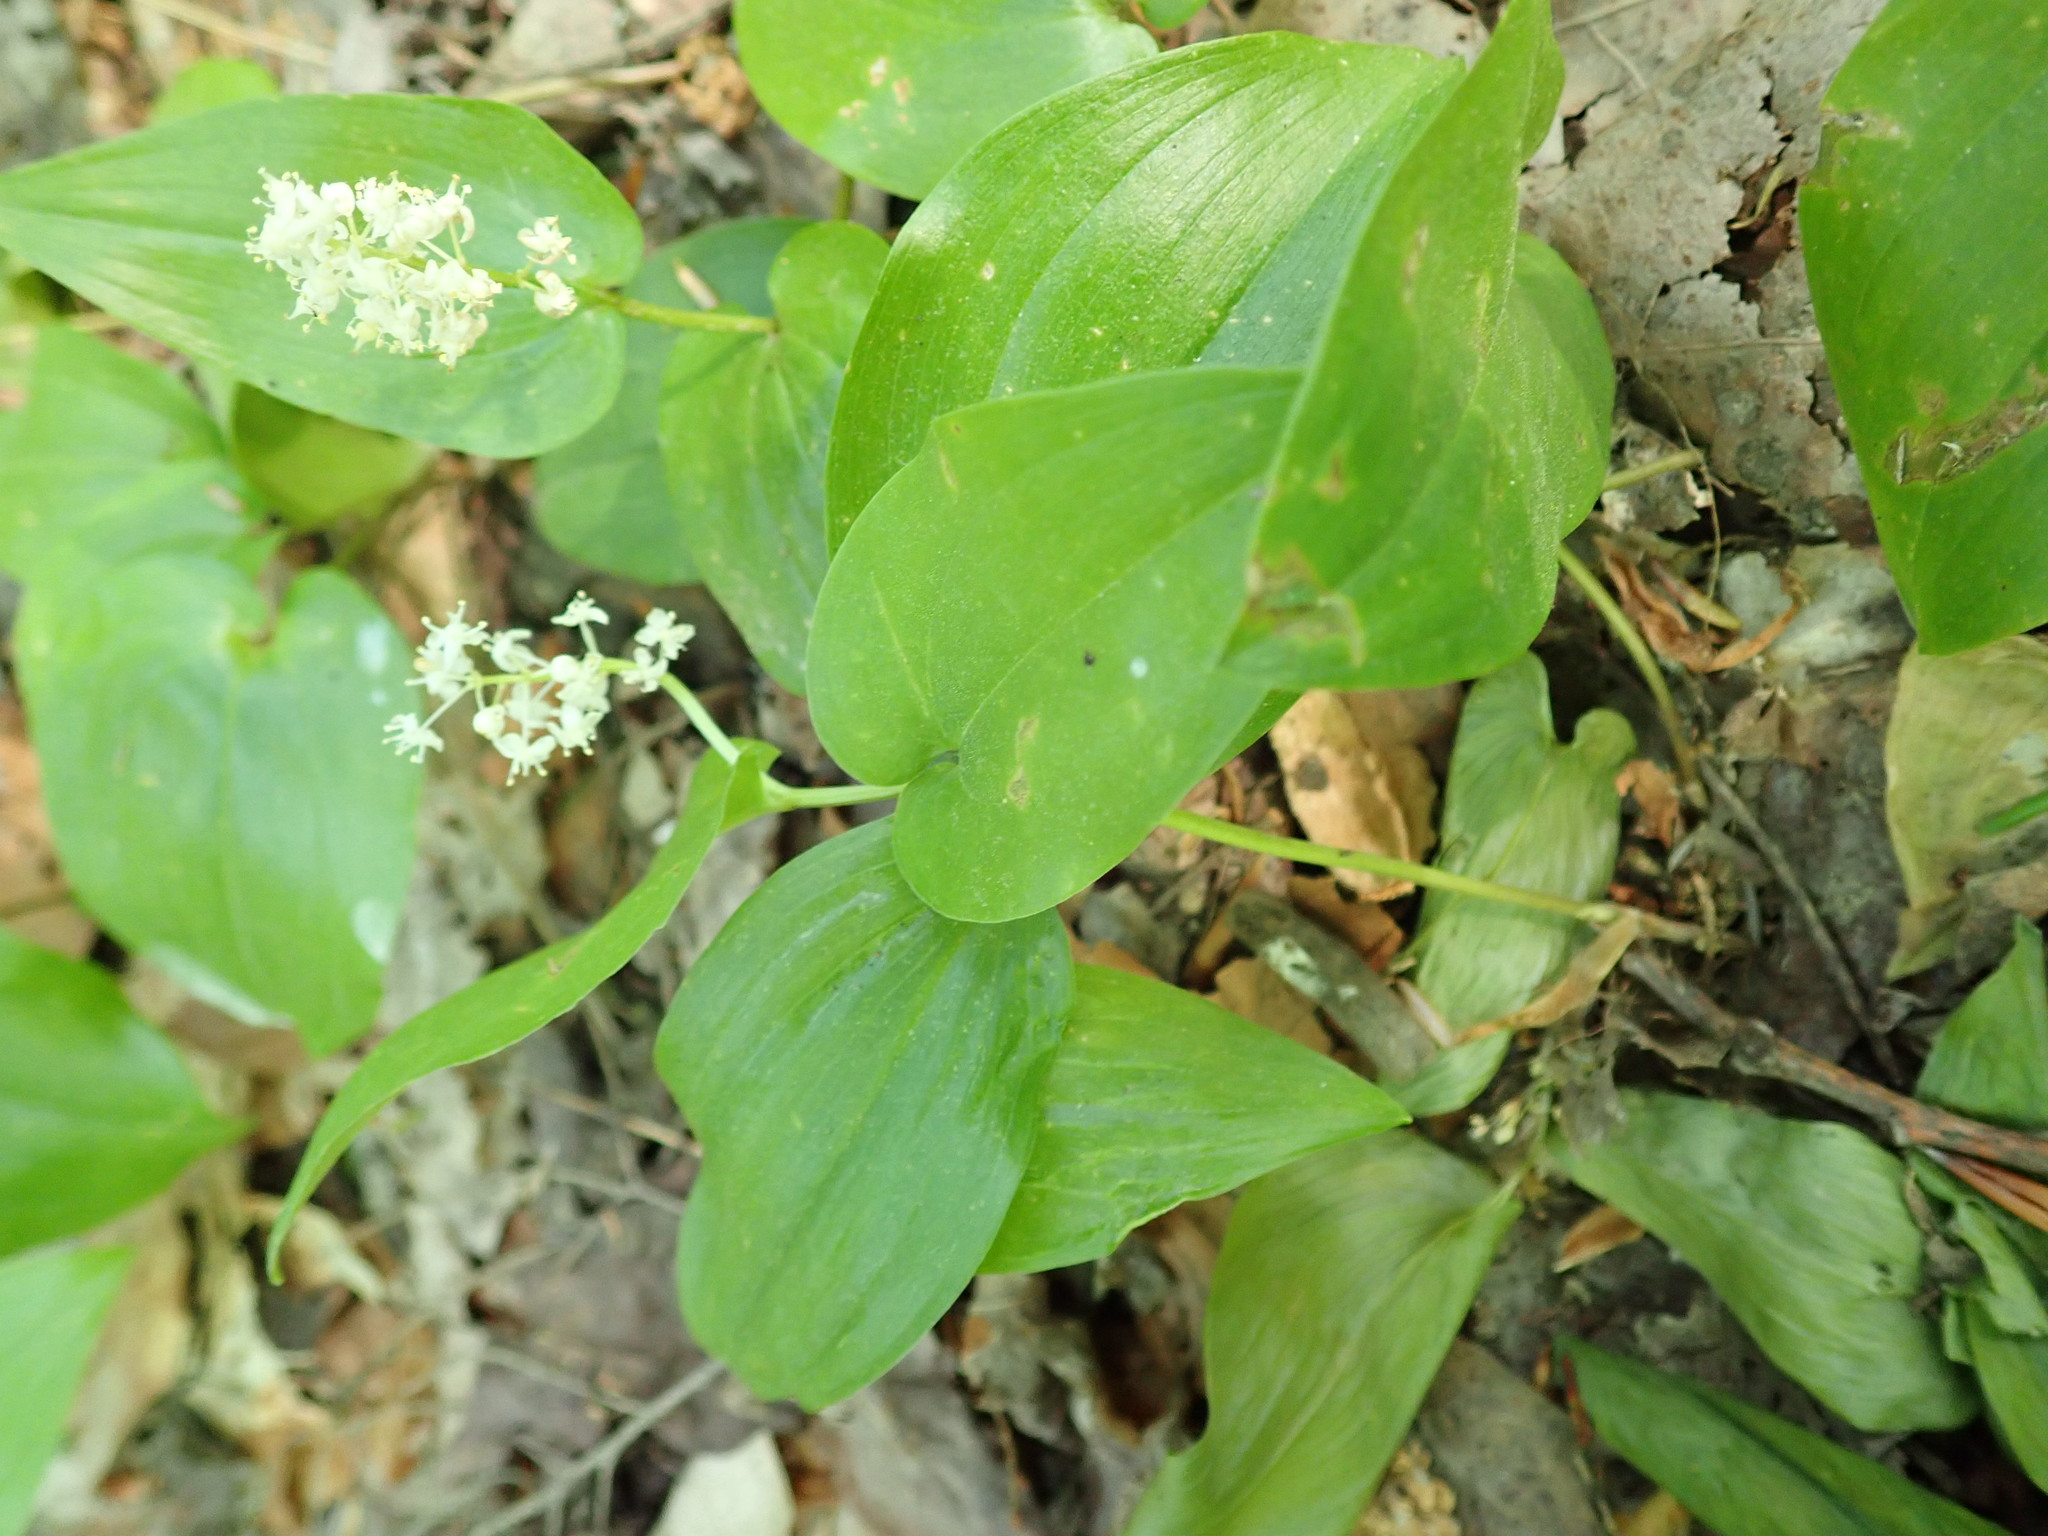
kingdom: Plantae
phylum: Tracheophyta
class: Liliopsida
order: Asparagales
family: Asparagaceae
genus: Maianthemum
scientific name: Maianthemum canadense
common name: False lily-of-the-valley
